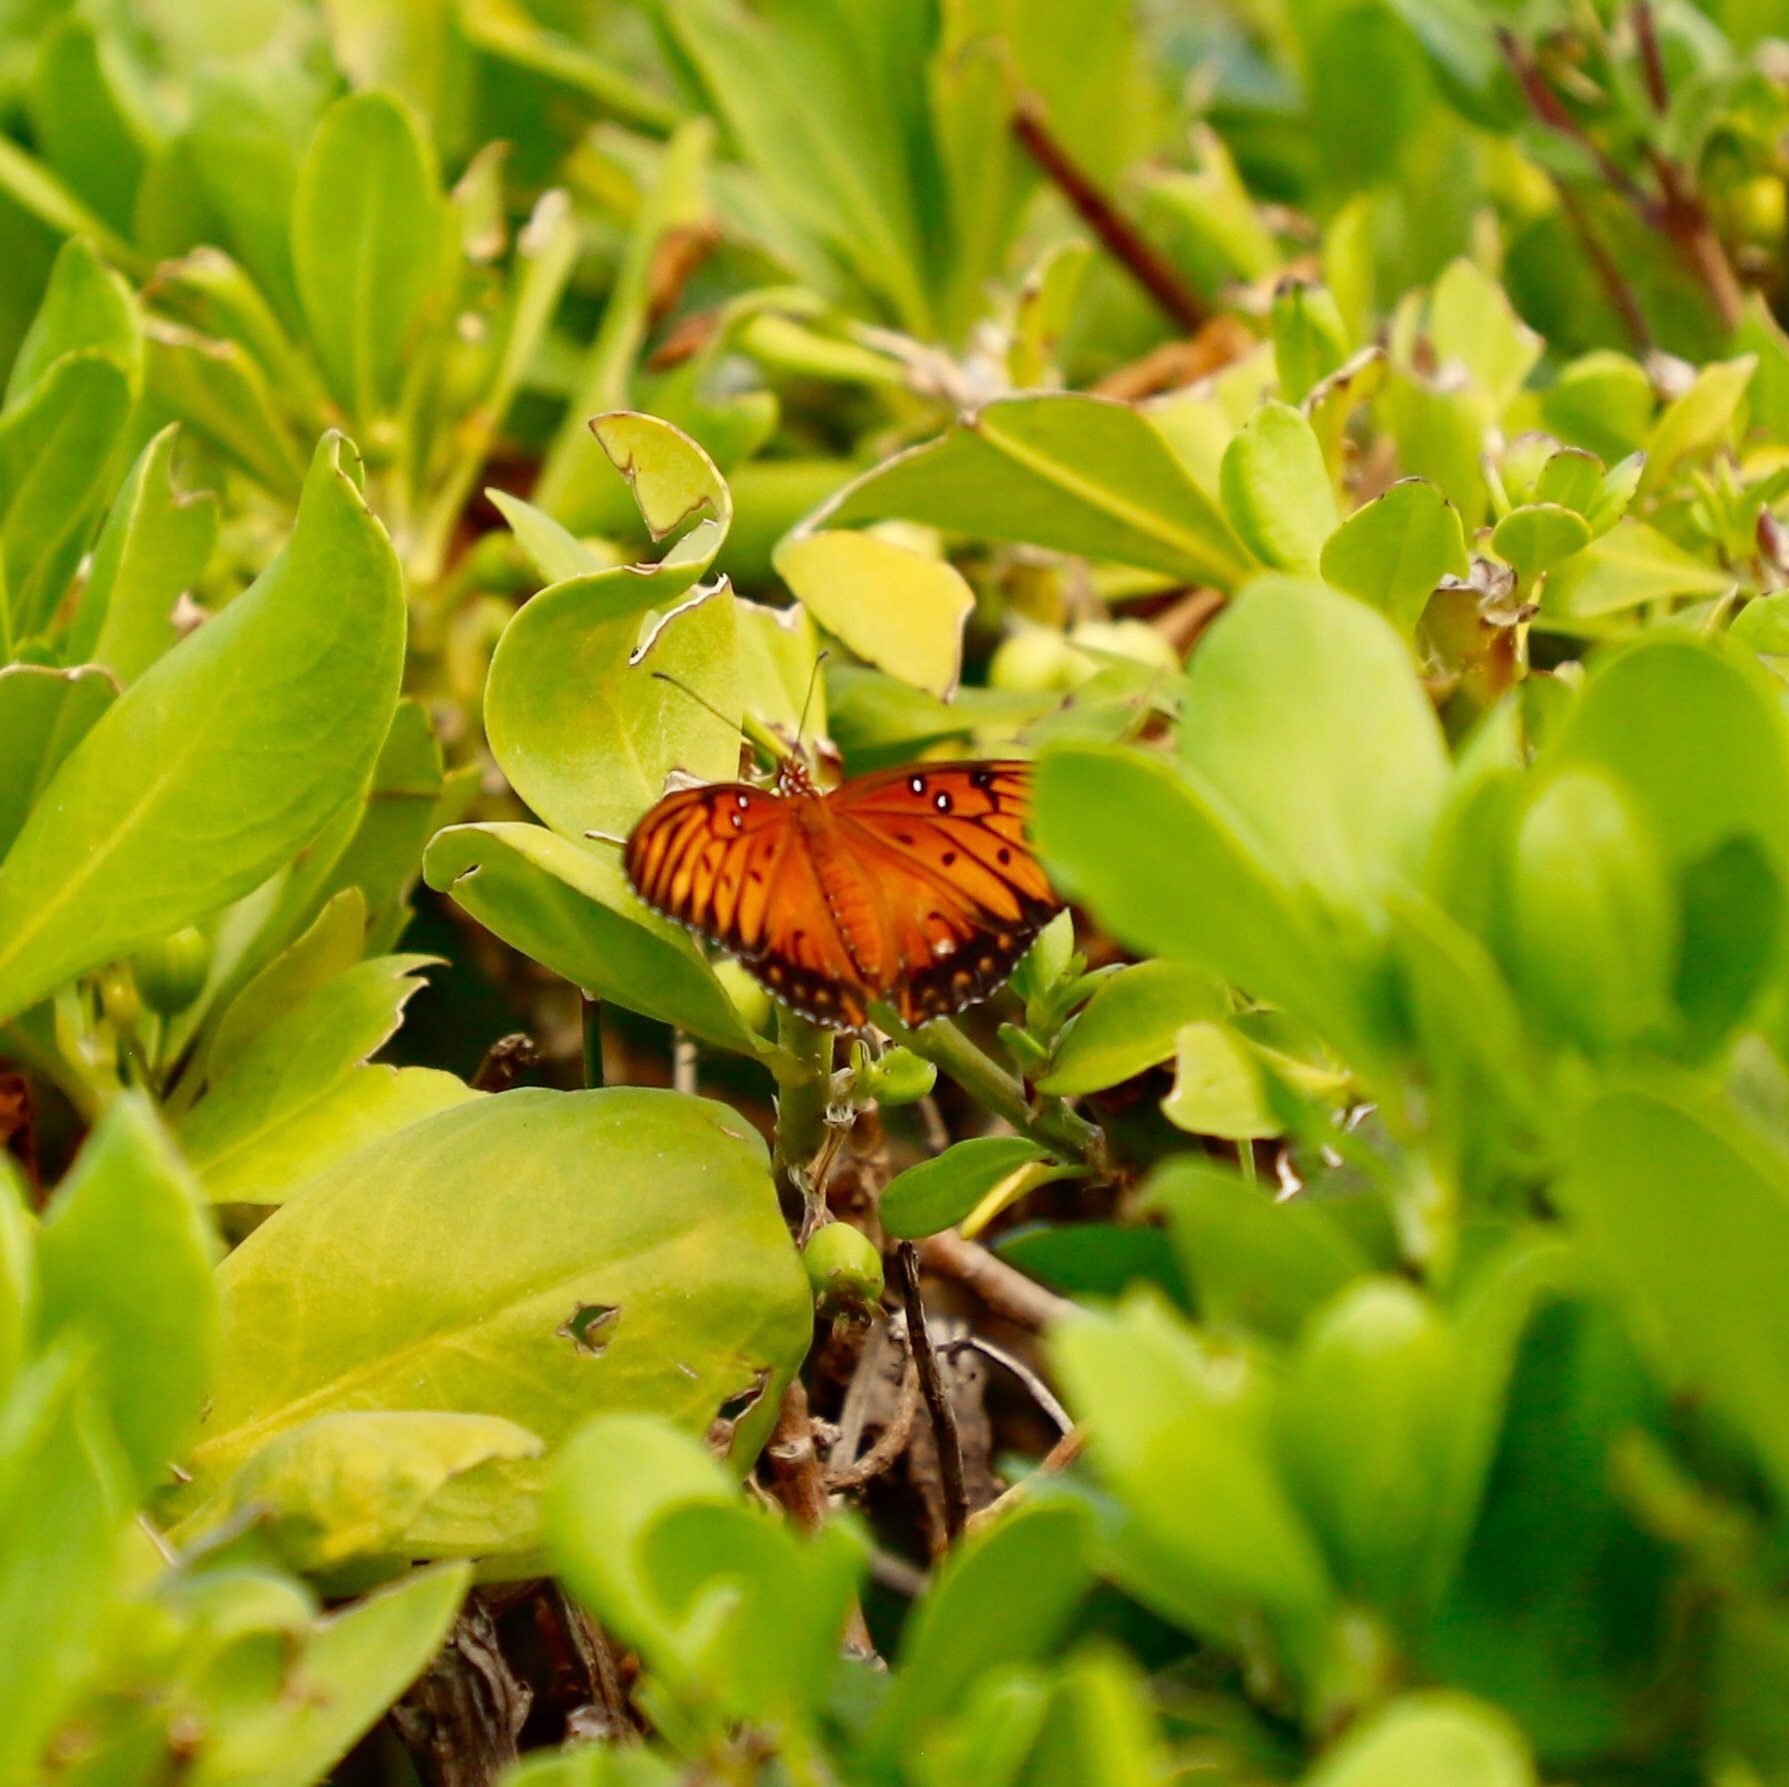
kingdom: Animalia
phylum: Arthropoda
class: Insecta
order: Lepidoptera
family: Nymphalidae
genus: Dione
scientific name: Dione vanillae
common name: Gulf fritillary
